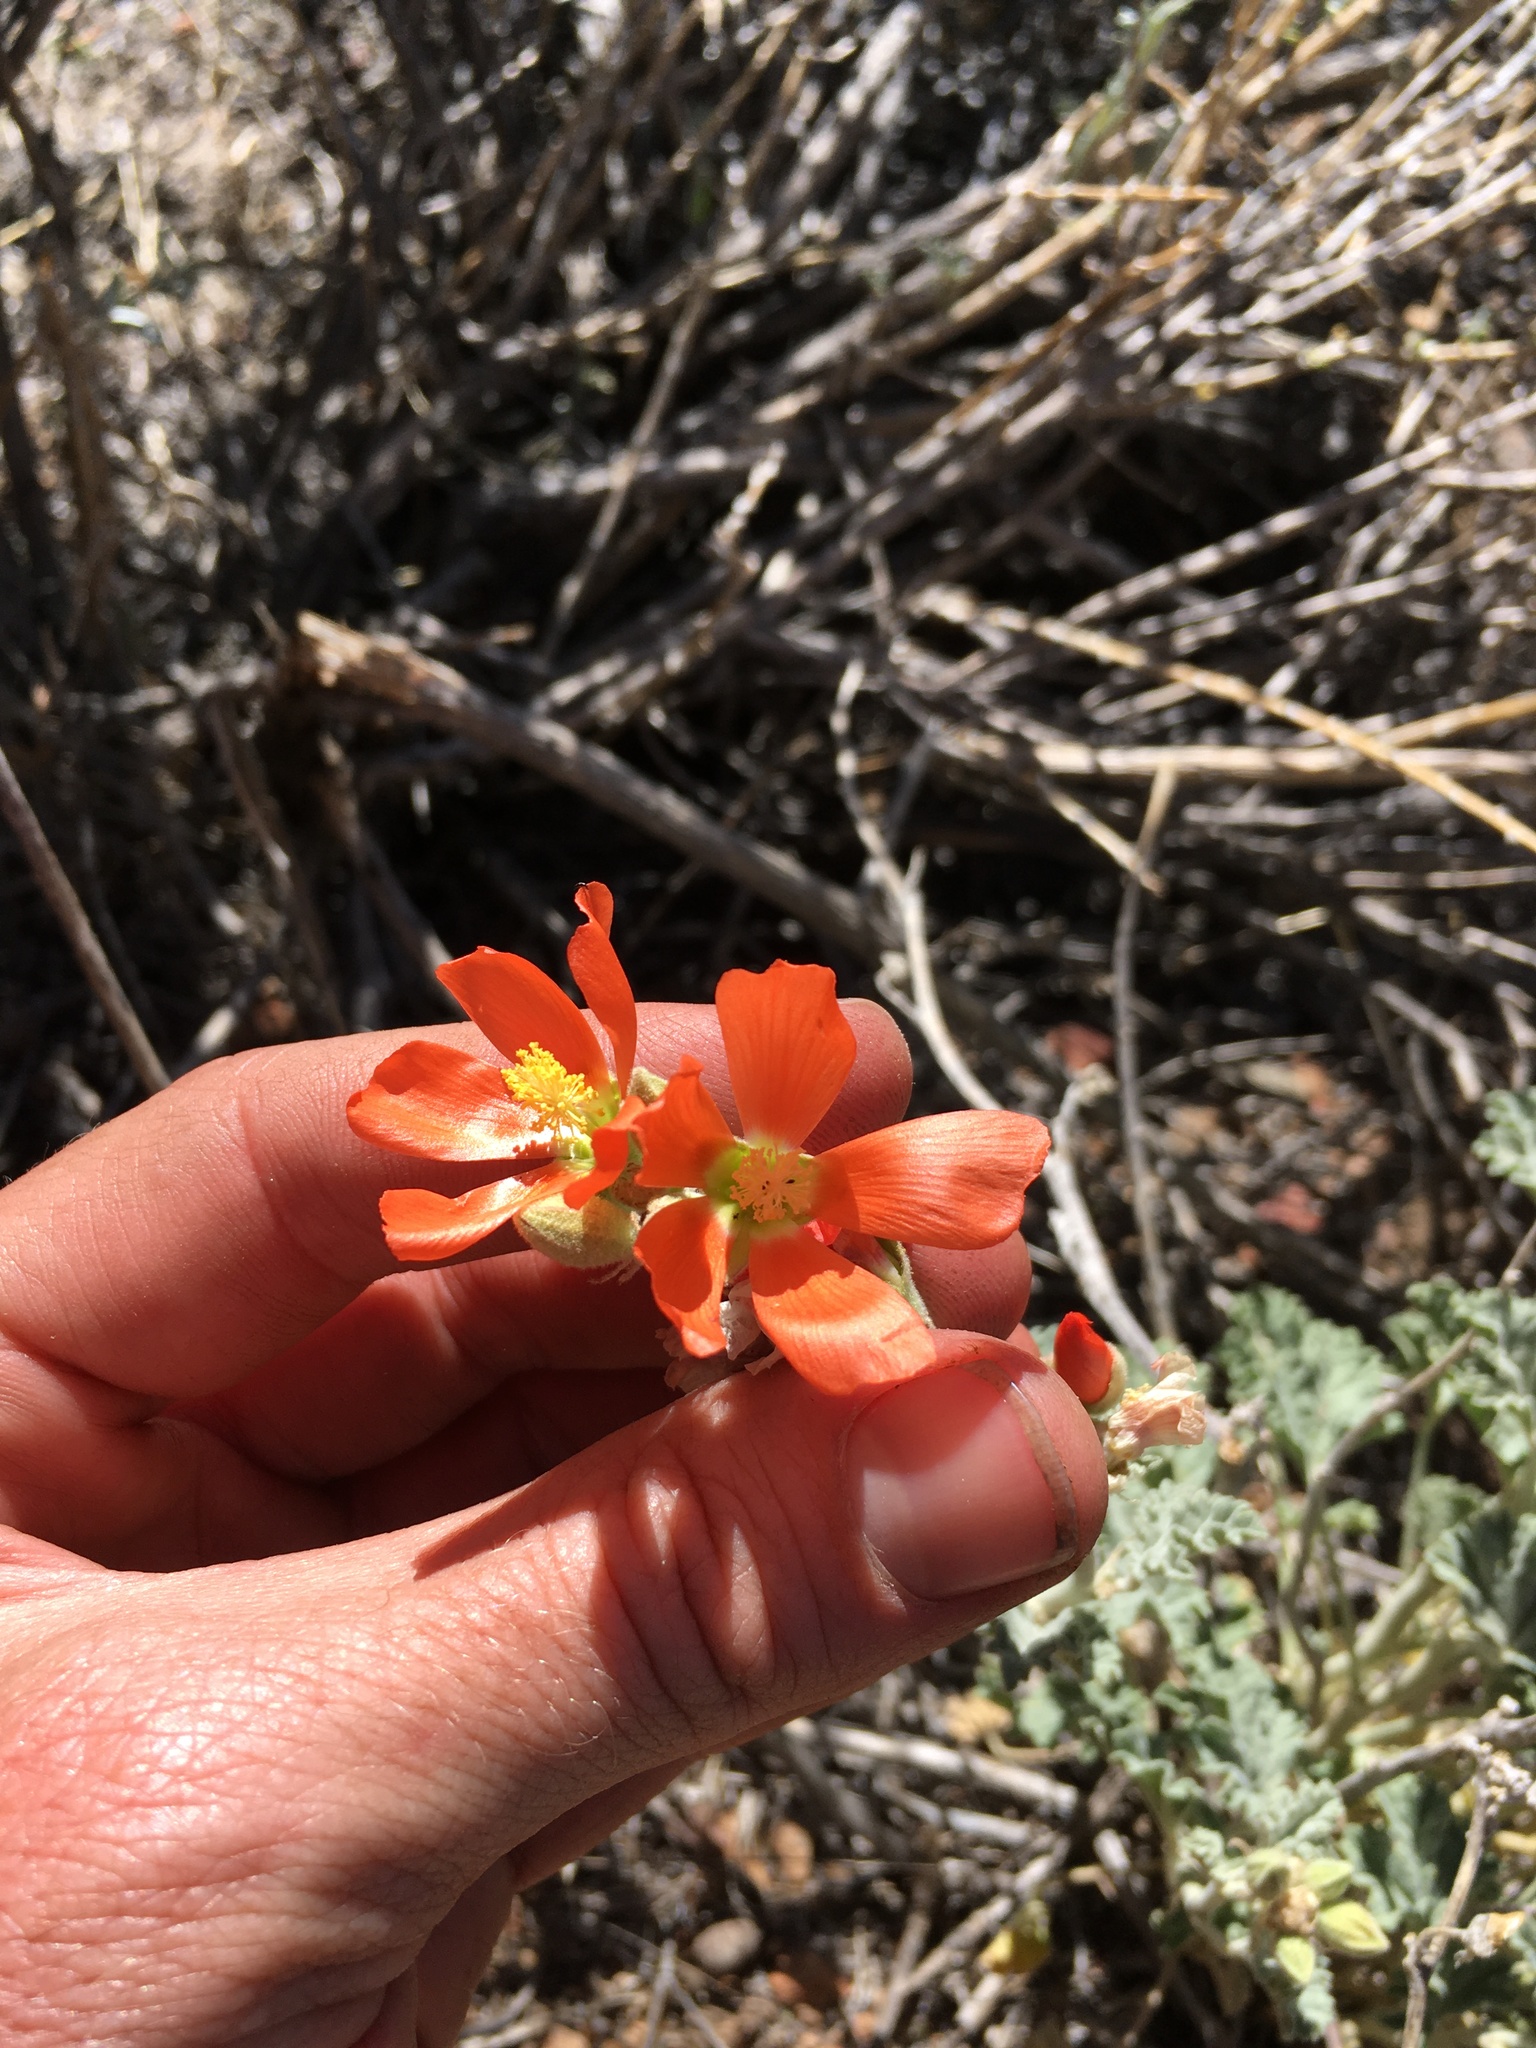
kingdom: Plantae
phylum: Tracheophyta
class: Magnoliopsida
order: Malvales
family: Malvaceae
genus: Sphaeralcea
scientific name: Sphaeralcea ambigua
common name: Apricot globe-mallow
